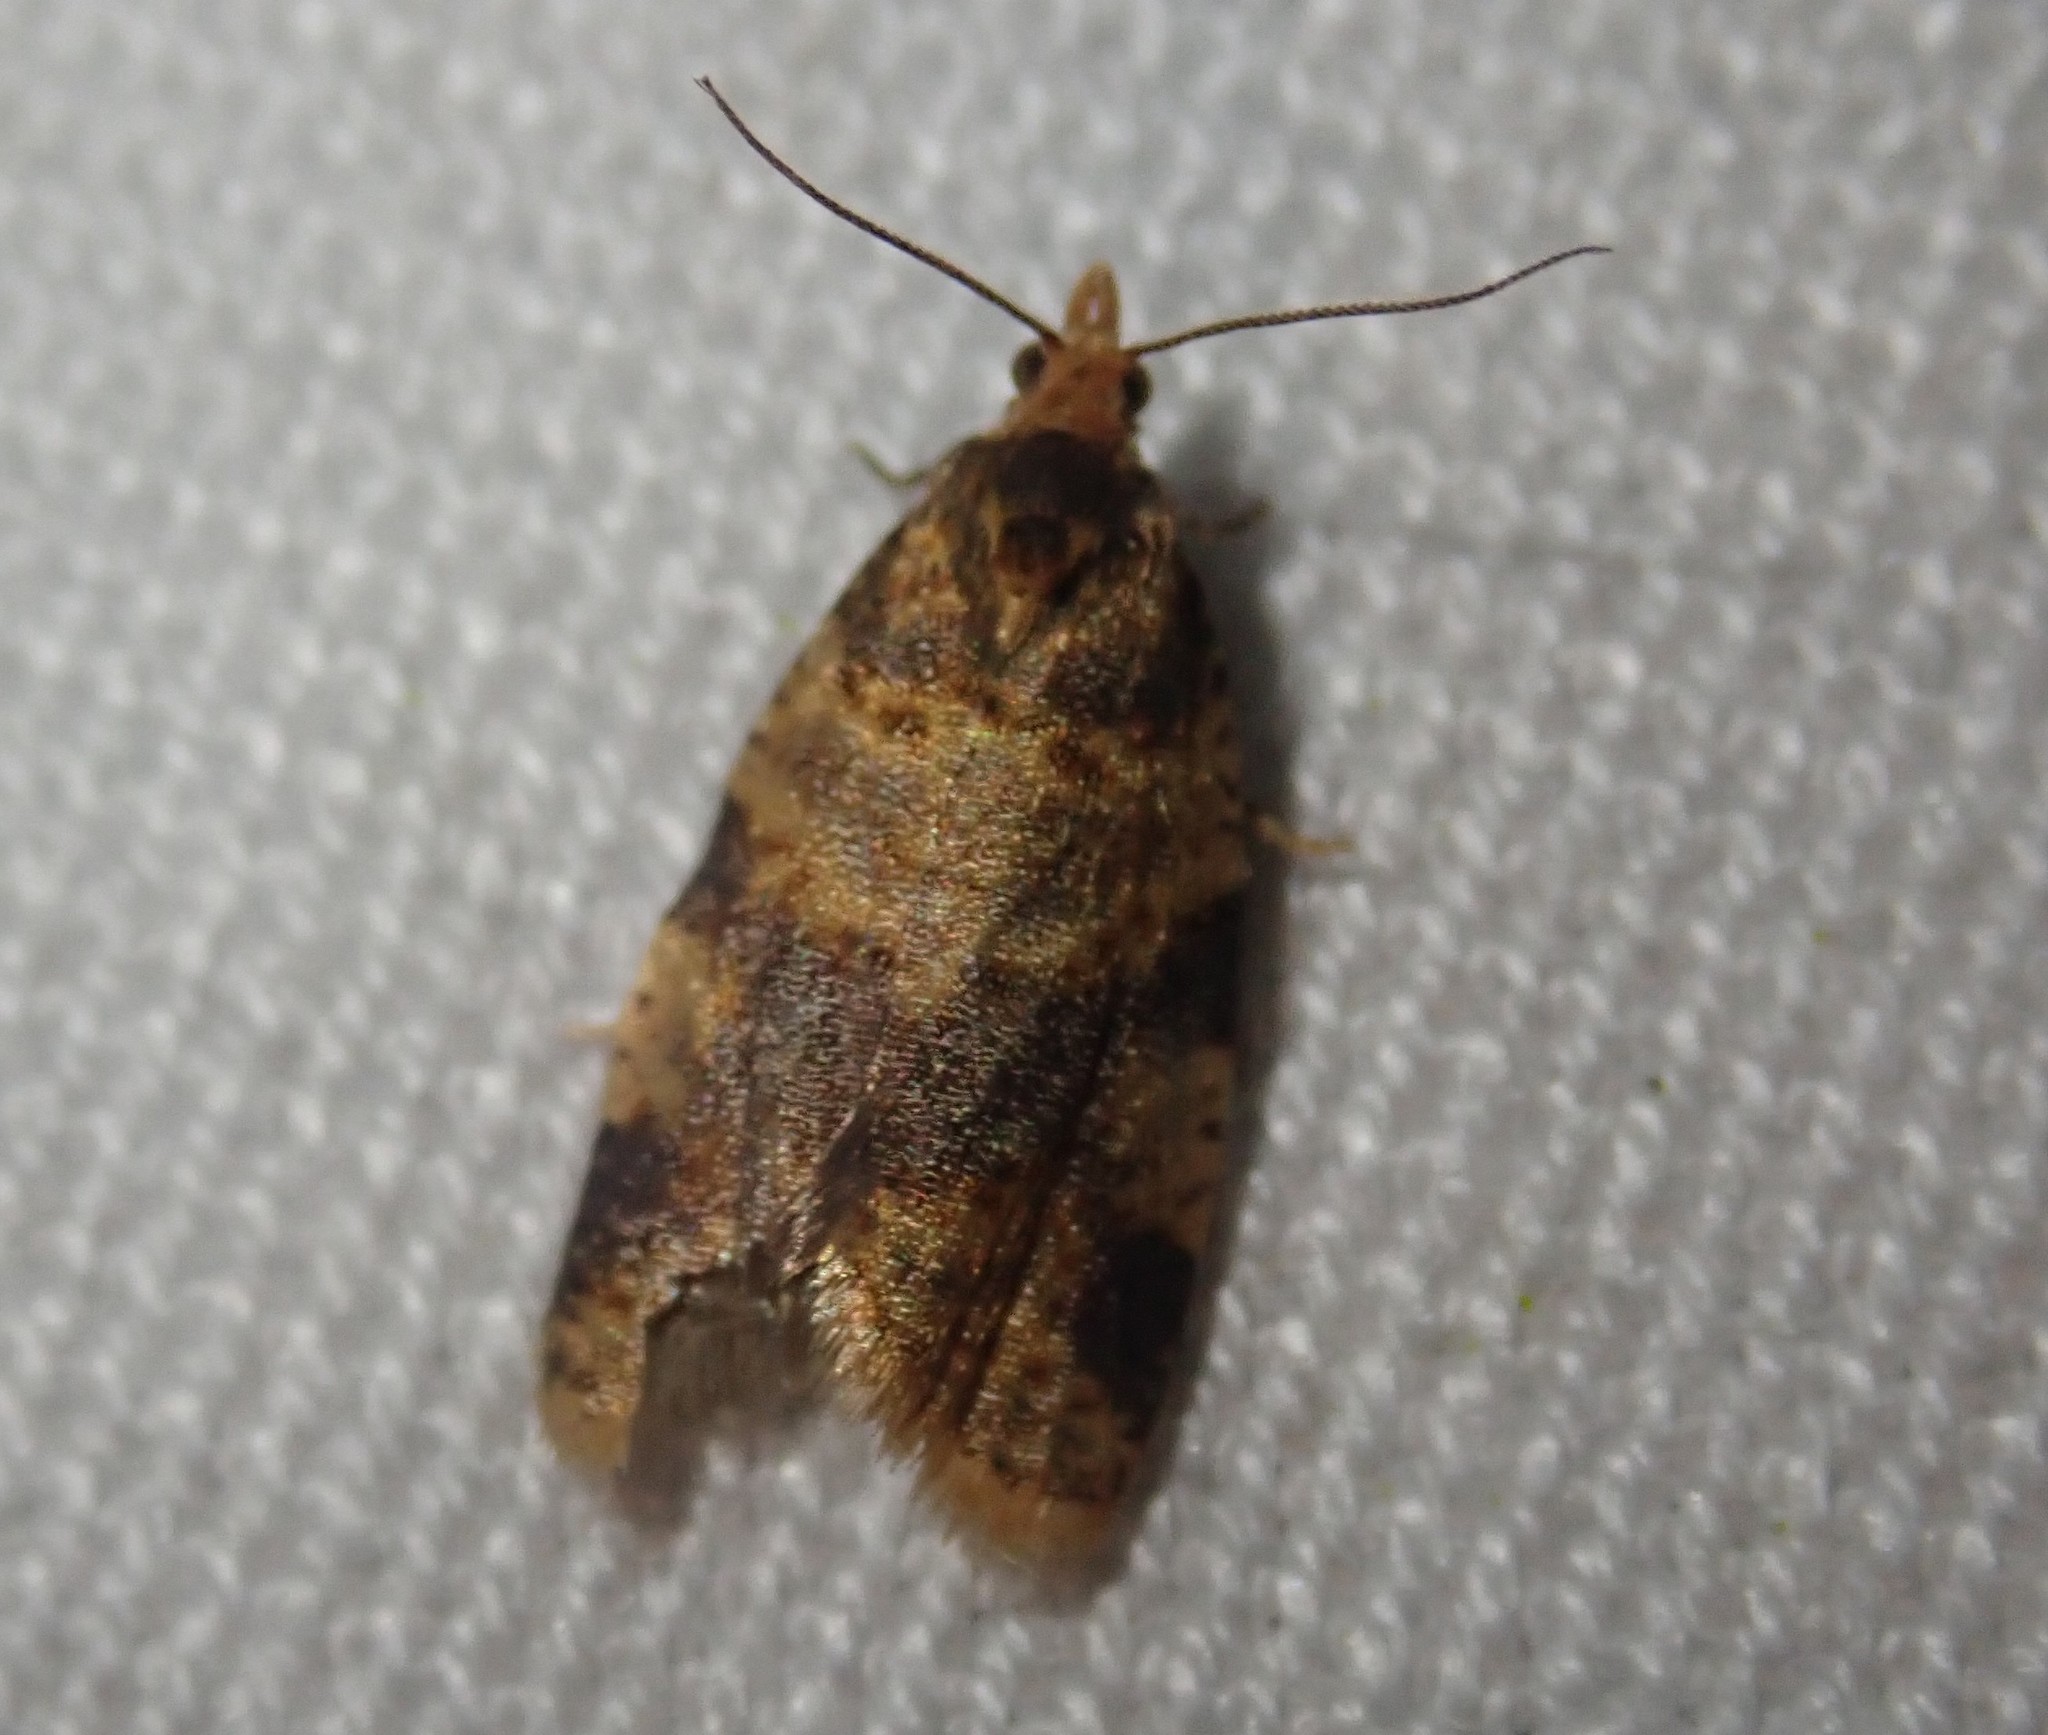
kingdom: Animalia
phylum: Arthropoda
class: Insecta
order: Lepidoptera
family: Tortricidae
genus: Epagoge
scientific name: Epagoge grotiana
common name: Brown-barred twist
